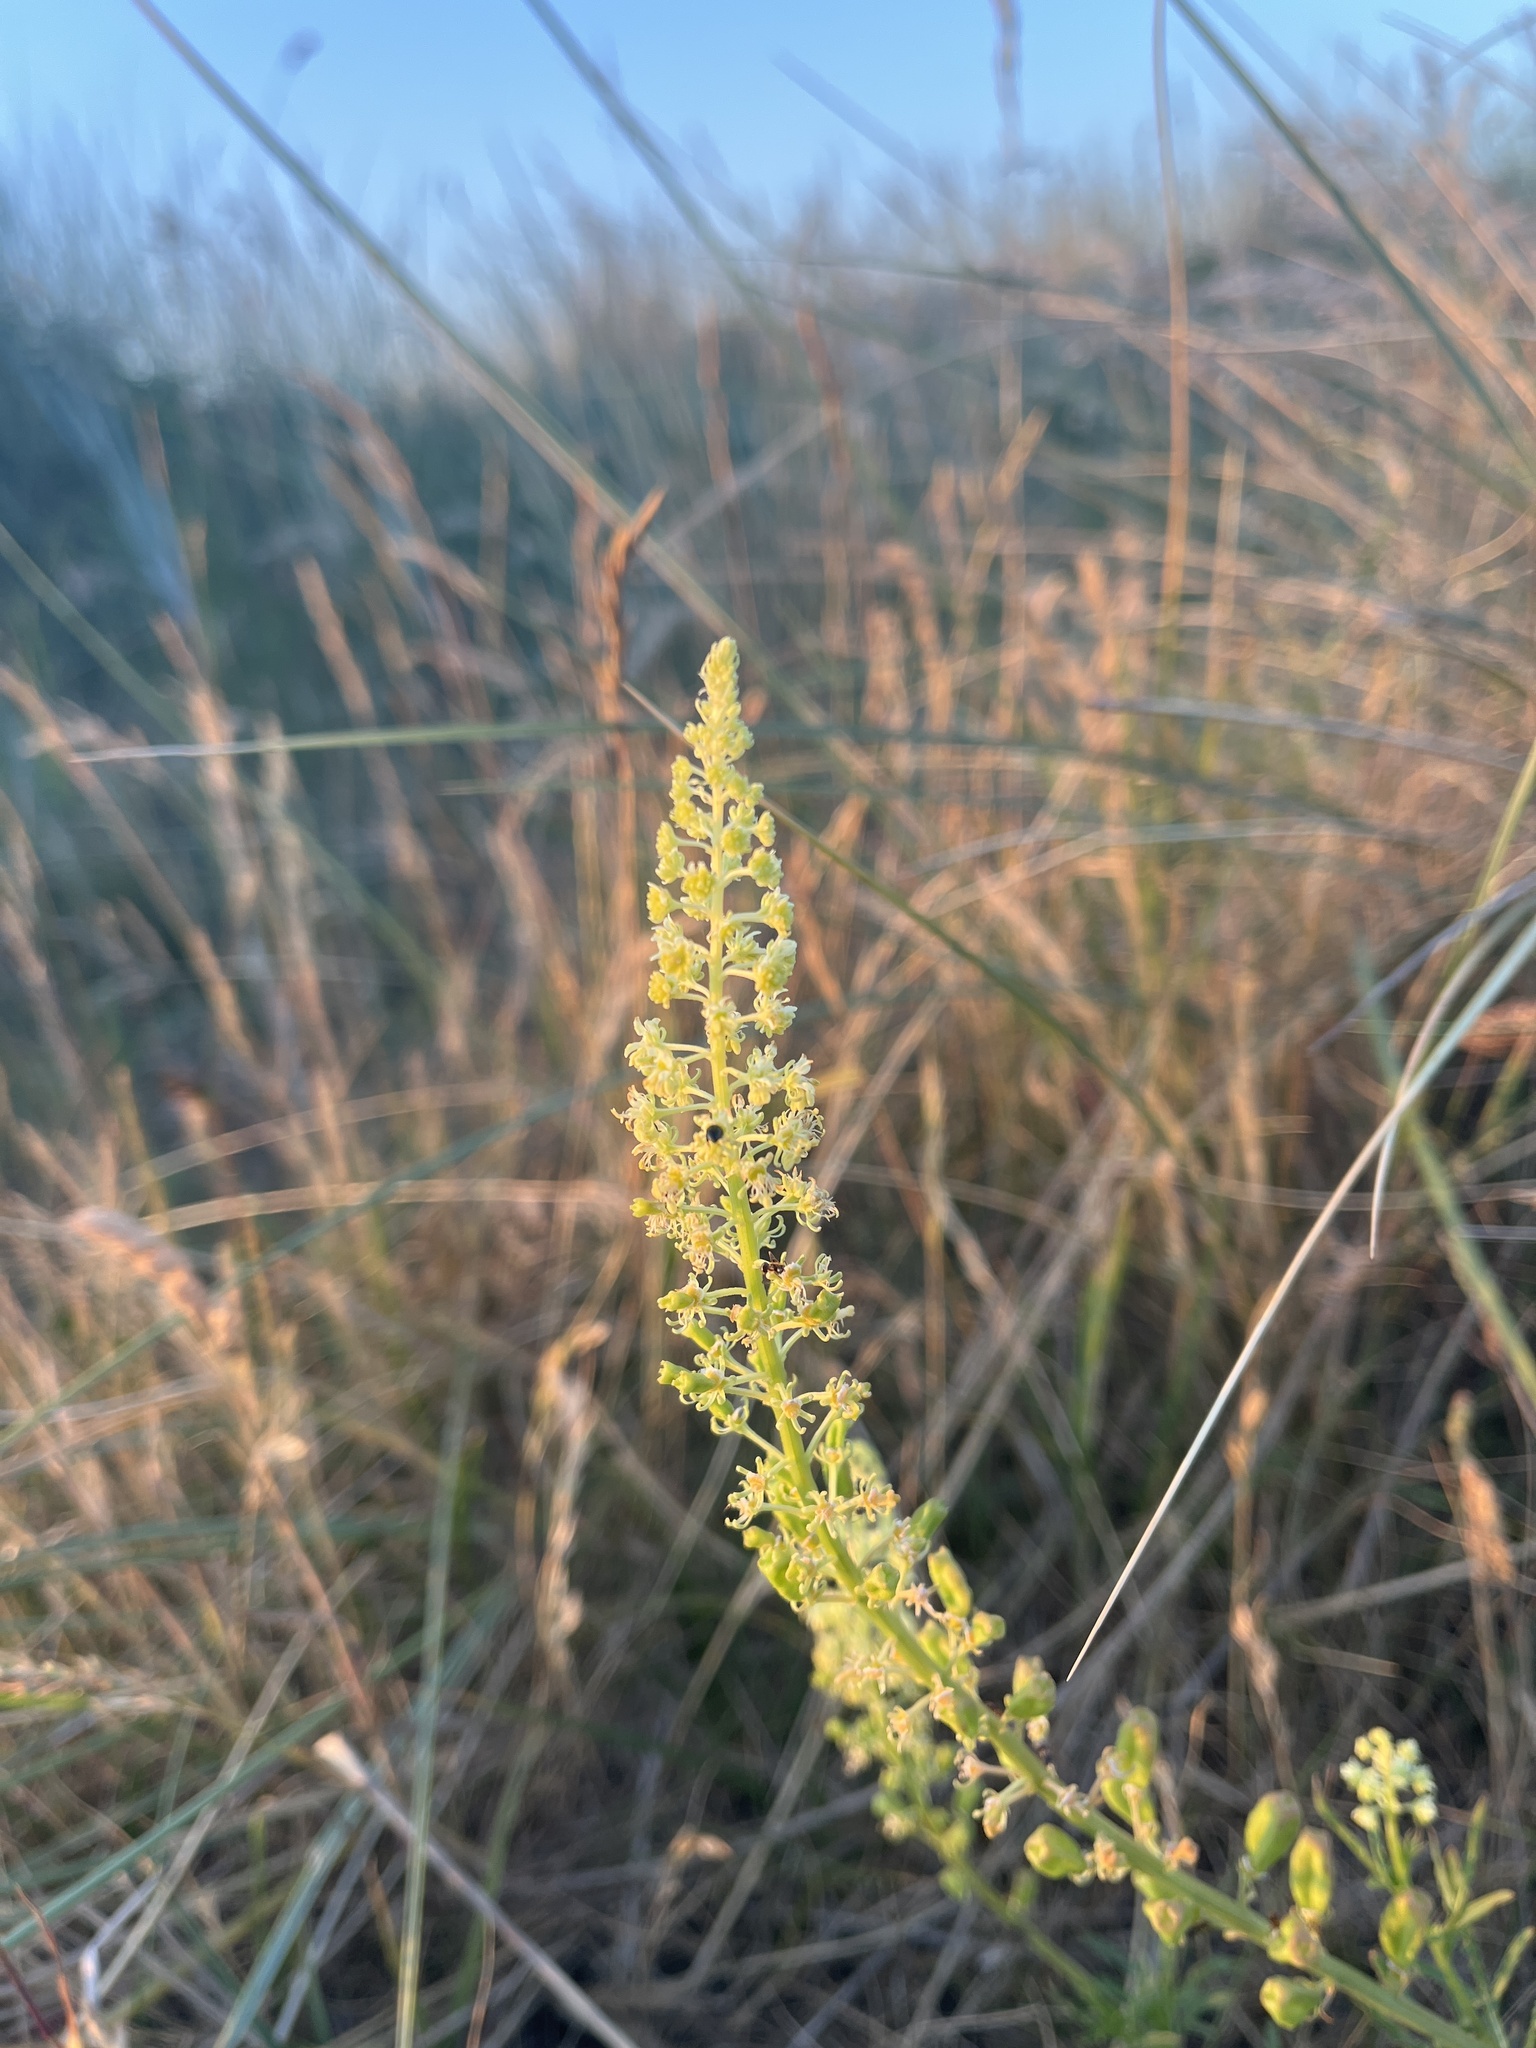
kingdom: Plantae
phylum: Tracheophyta
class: Magnoliopsida
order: Brassicales
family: Resedaceae
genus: Reseda
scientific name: Reseda lutea
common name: Wild mignonette
